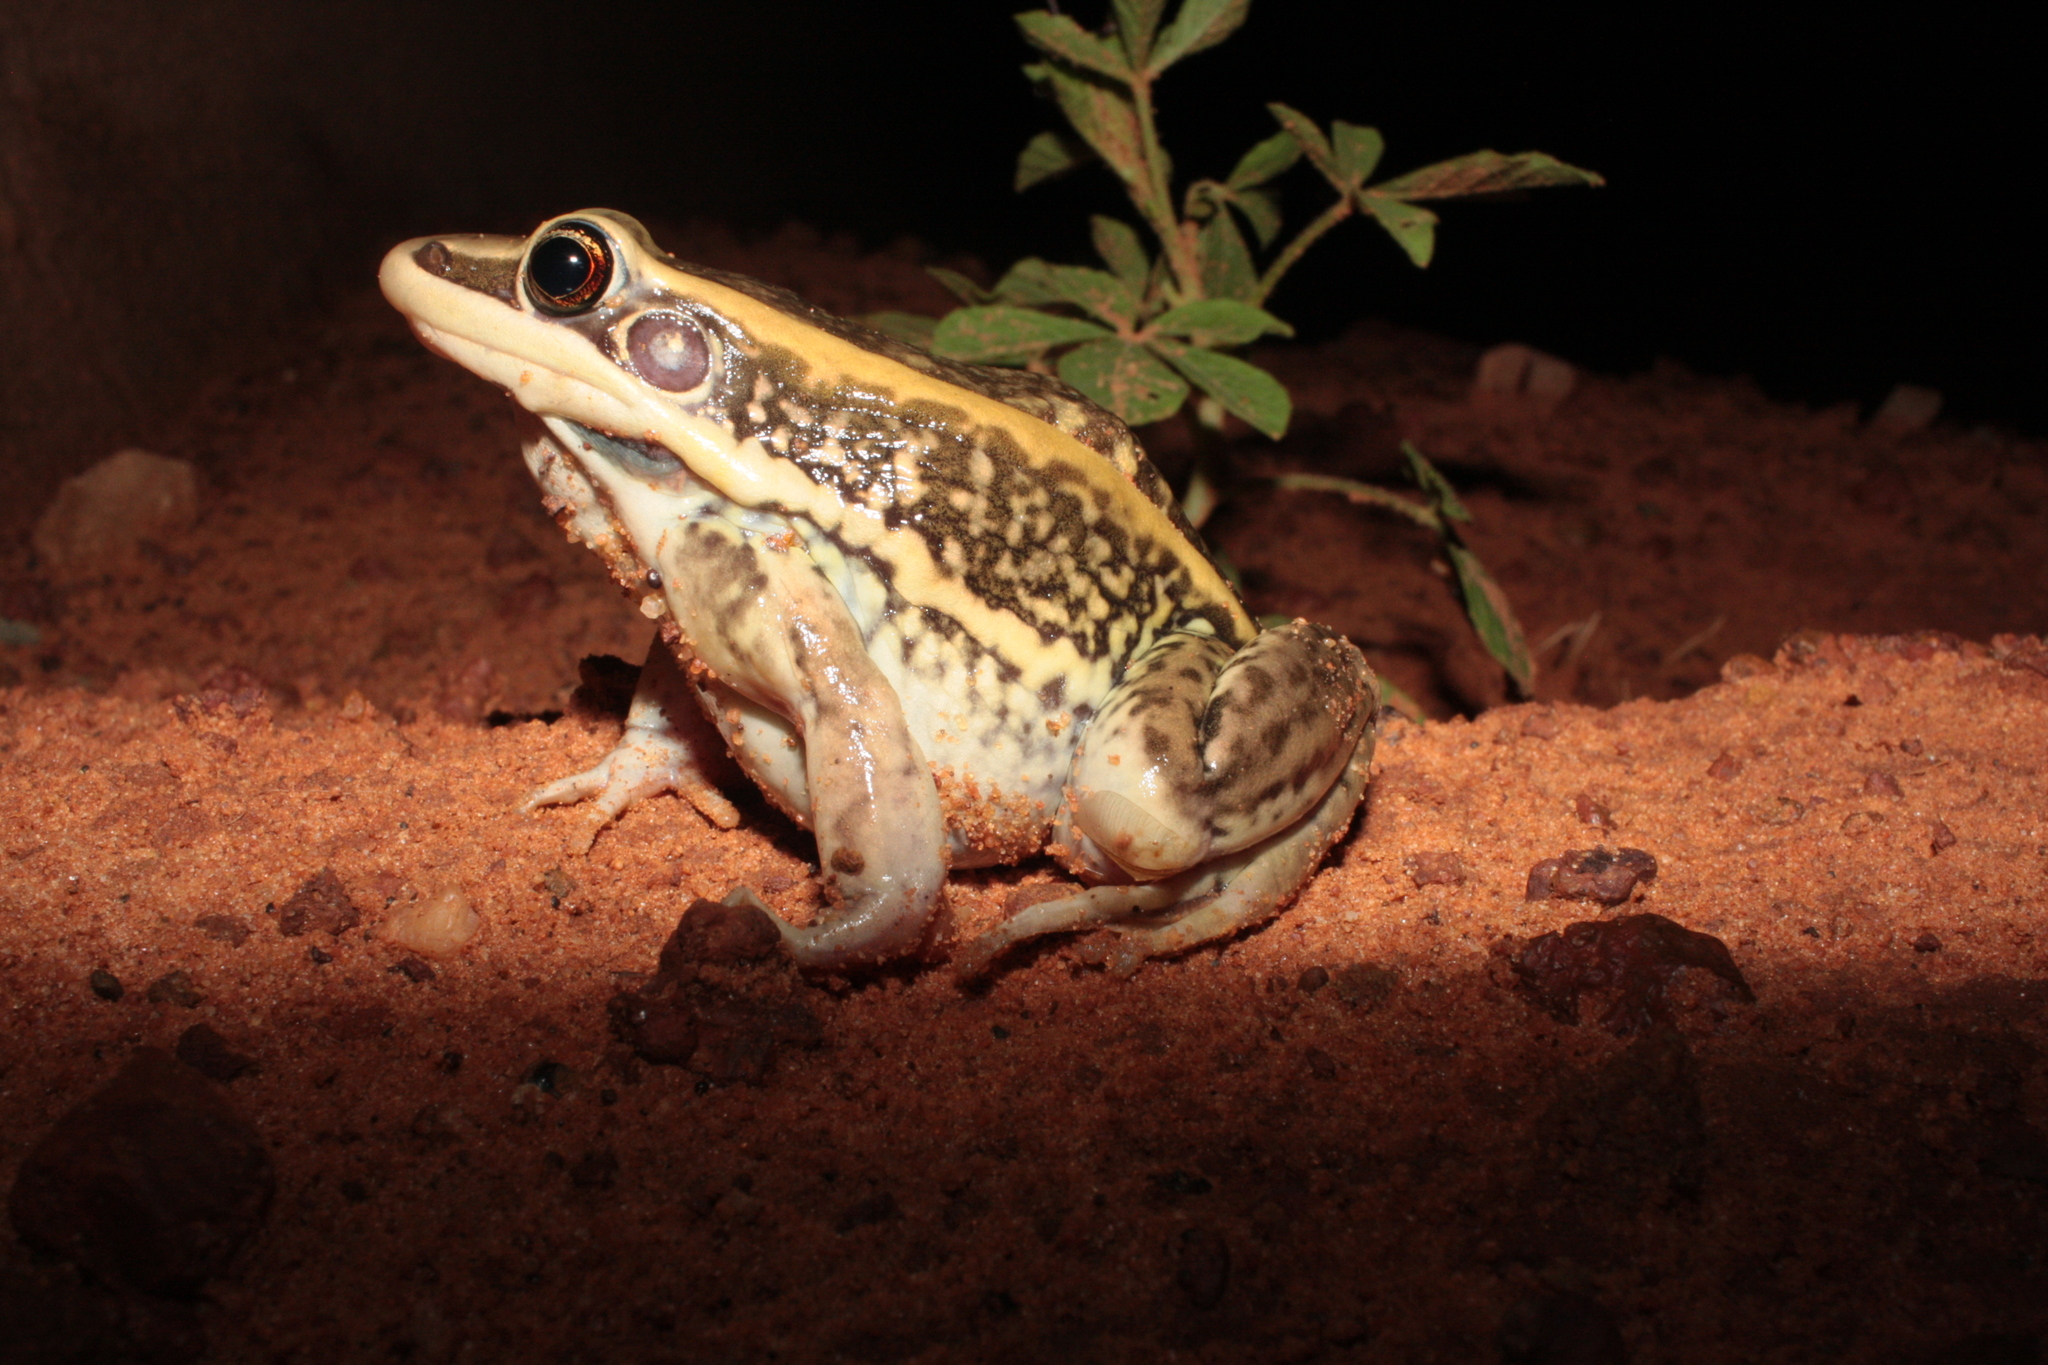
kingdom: Animalia
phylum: Chordata
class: Amphibia
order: Anura
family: Ranidae
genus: Amnirana
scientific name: Amnirana galamensis
